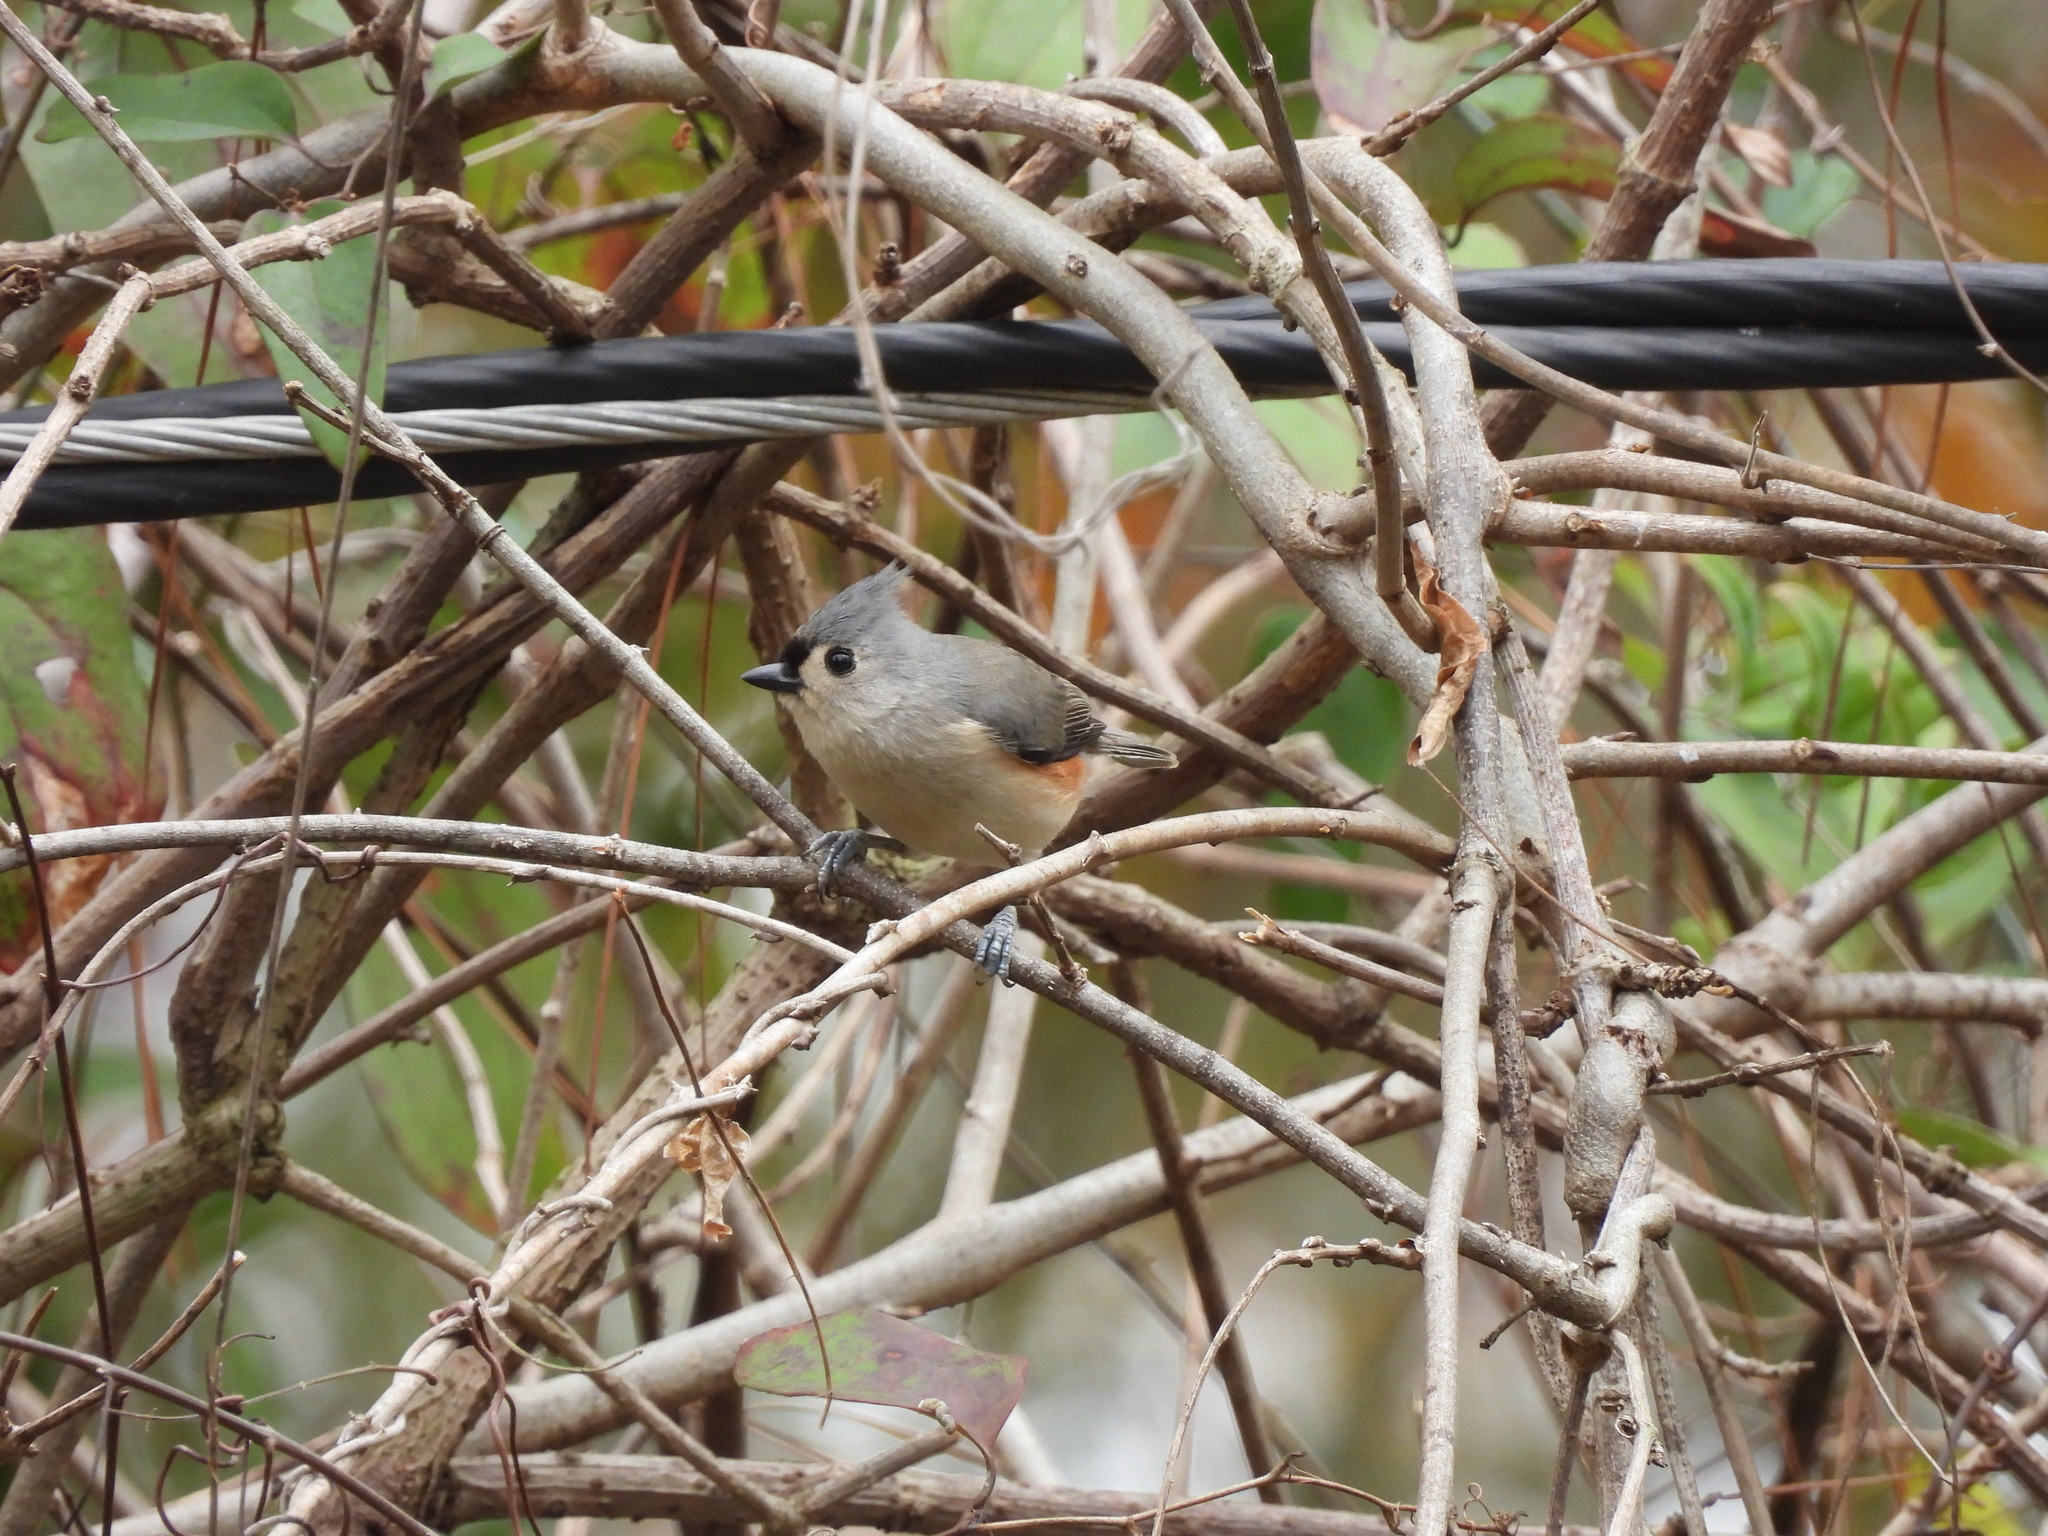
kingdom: Animalia
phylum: Chordata
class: Aves
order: Passeriformes
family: Paridae
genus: Baeolophus
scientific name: Baeolophus bicolor
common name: Tufted titmouse
